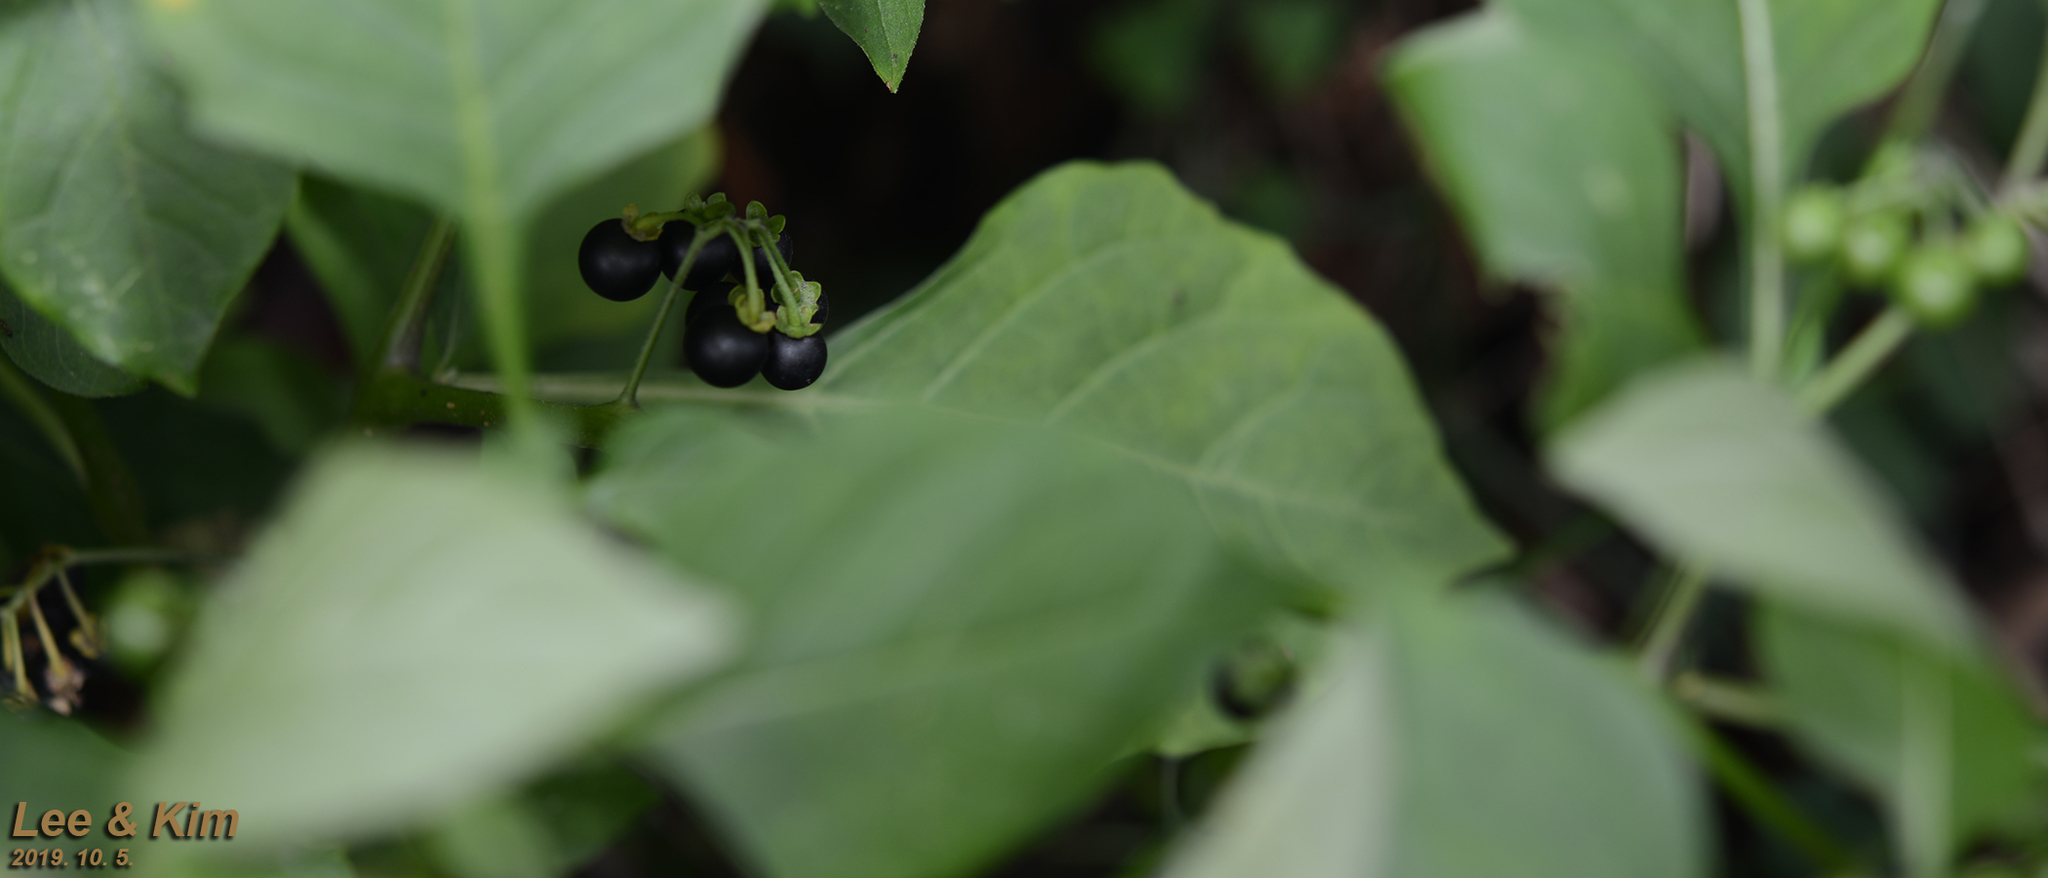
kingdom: Plantae
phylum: Tracheophyta
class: Magnoliopsida
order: Solanales
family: Solanaceae
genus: Solanum
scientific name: Solanum nigrum
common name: Black nightshade
